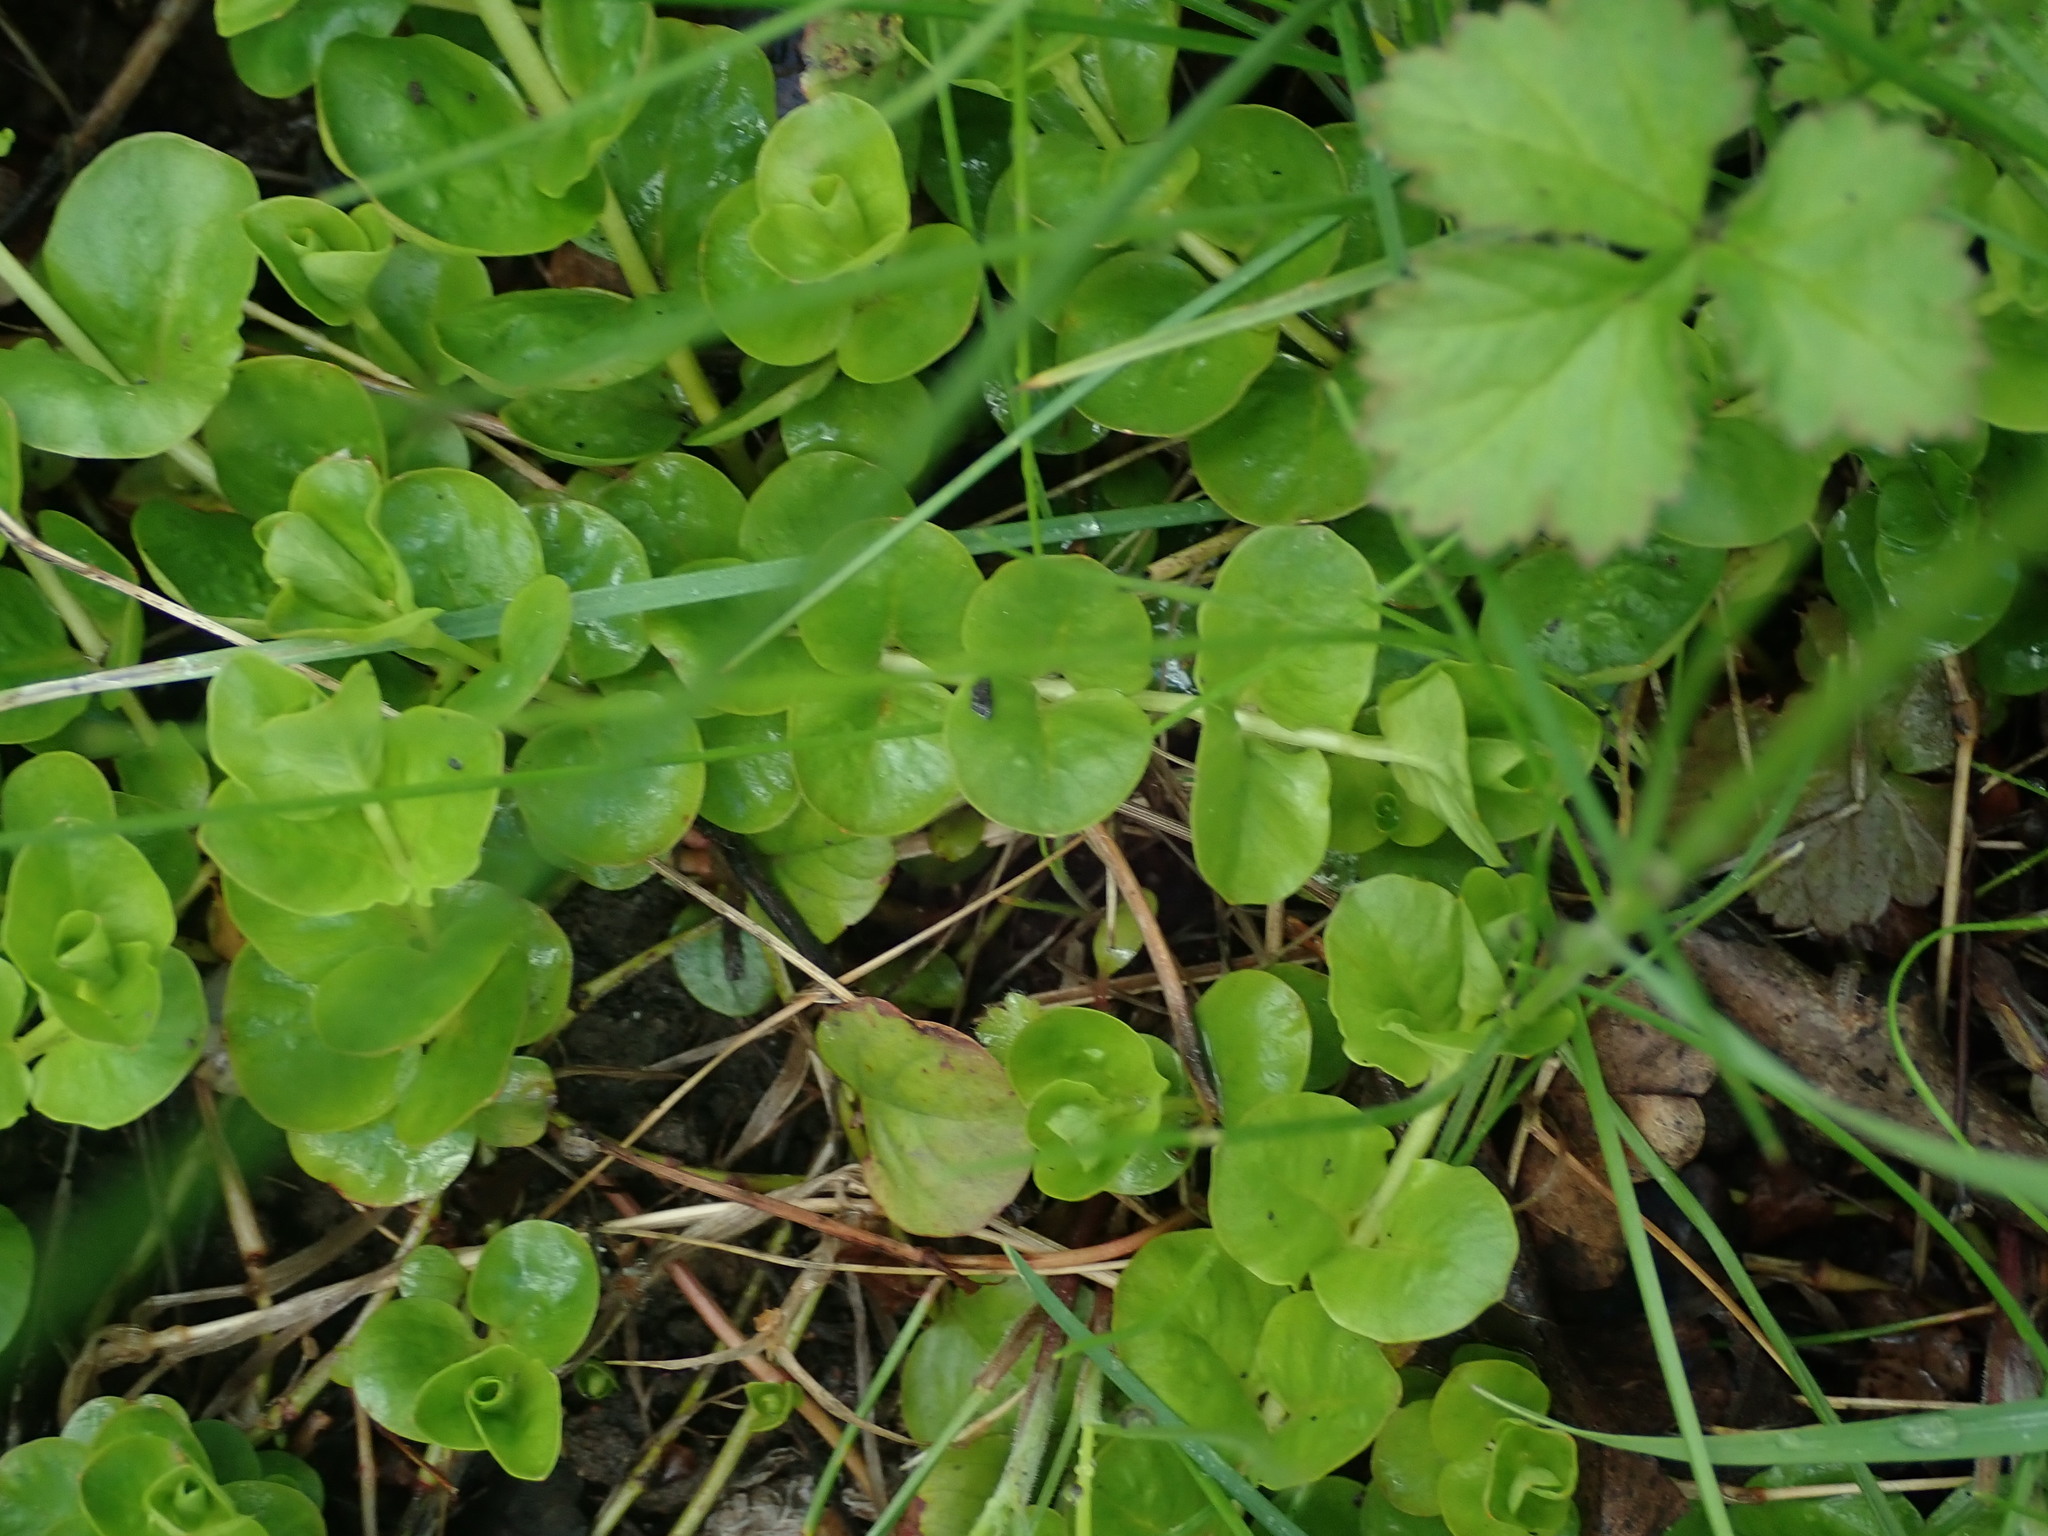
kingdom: Plantae
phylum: Tracheophyta
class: Magnoliopsida
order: Ericales
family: Primulaceae
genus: Lysimachia
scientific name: Lysimachia nummularia
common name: Moneywort
